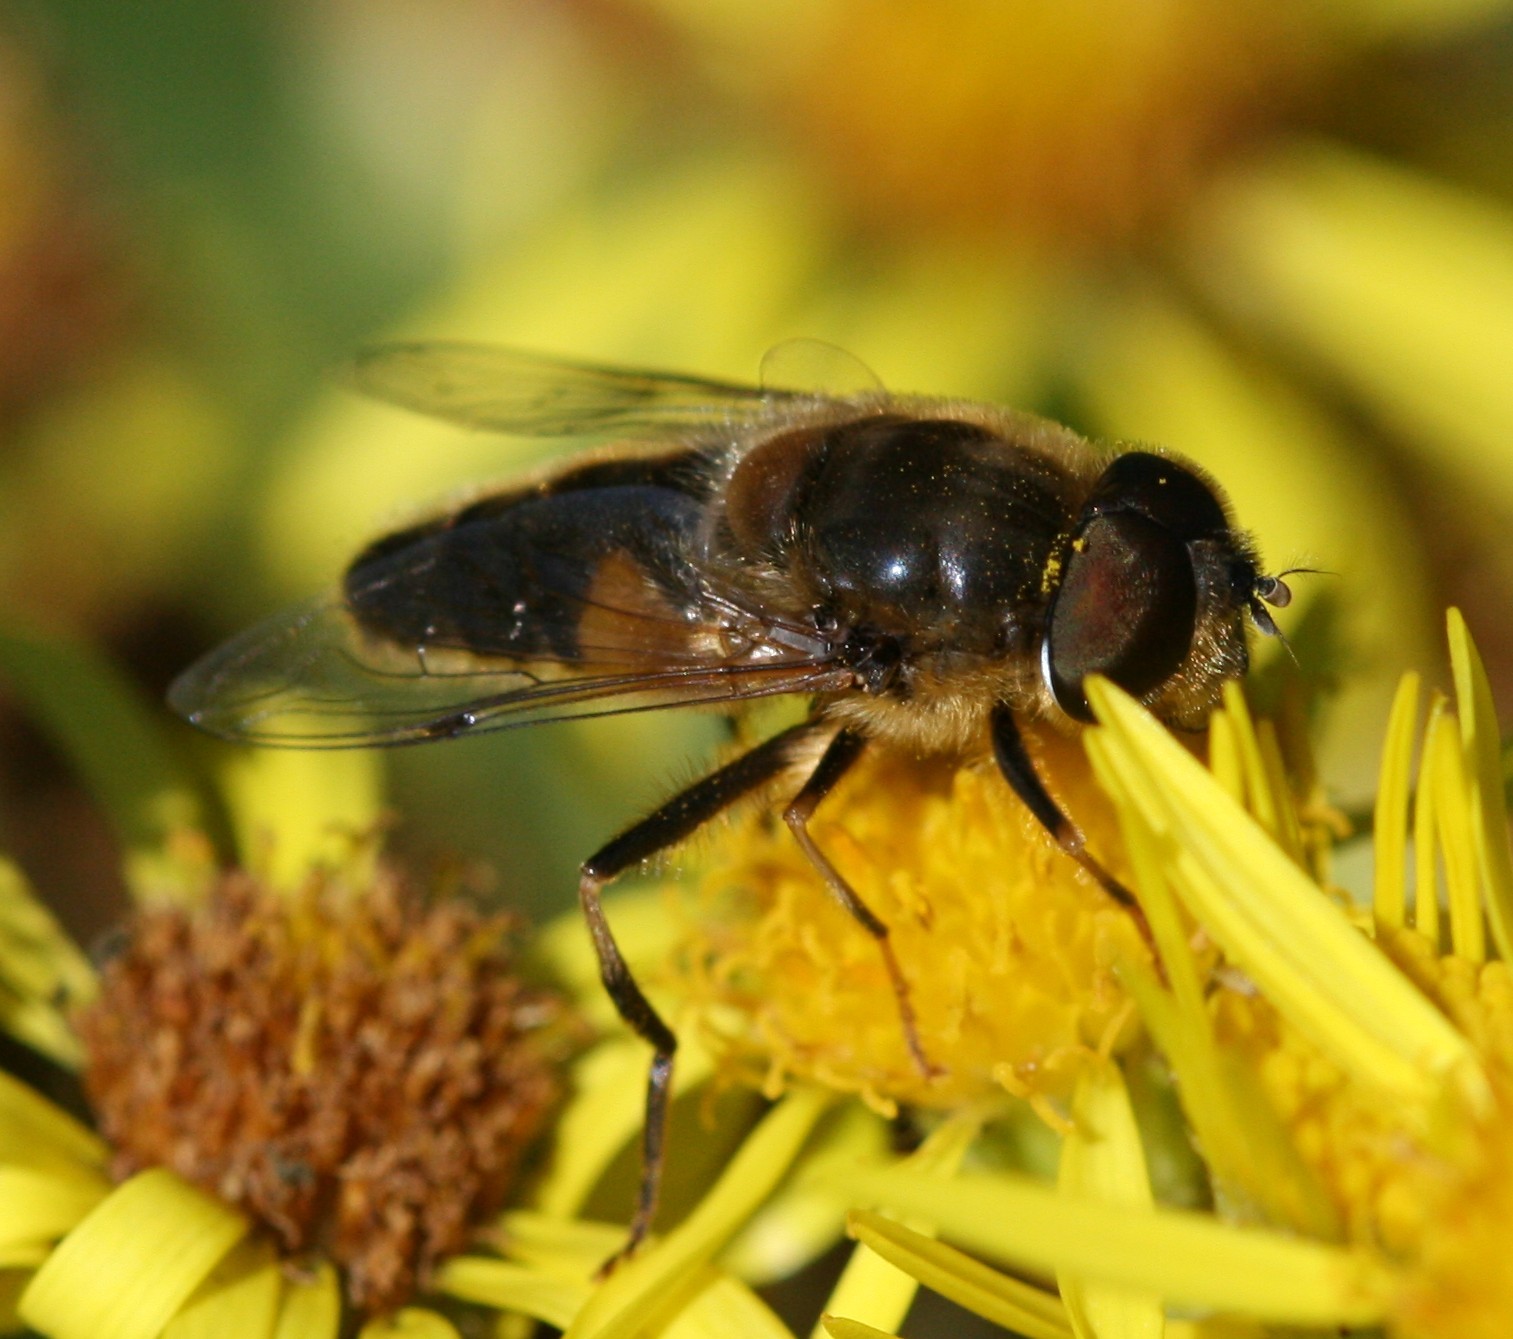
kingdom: Animalia
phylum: Arthropoda
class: Insecta
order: Diptera
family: Syrphidae
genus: Eristalis
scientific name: Eristalis pertinax
